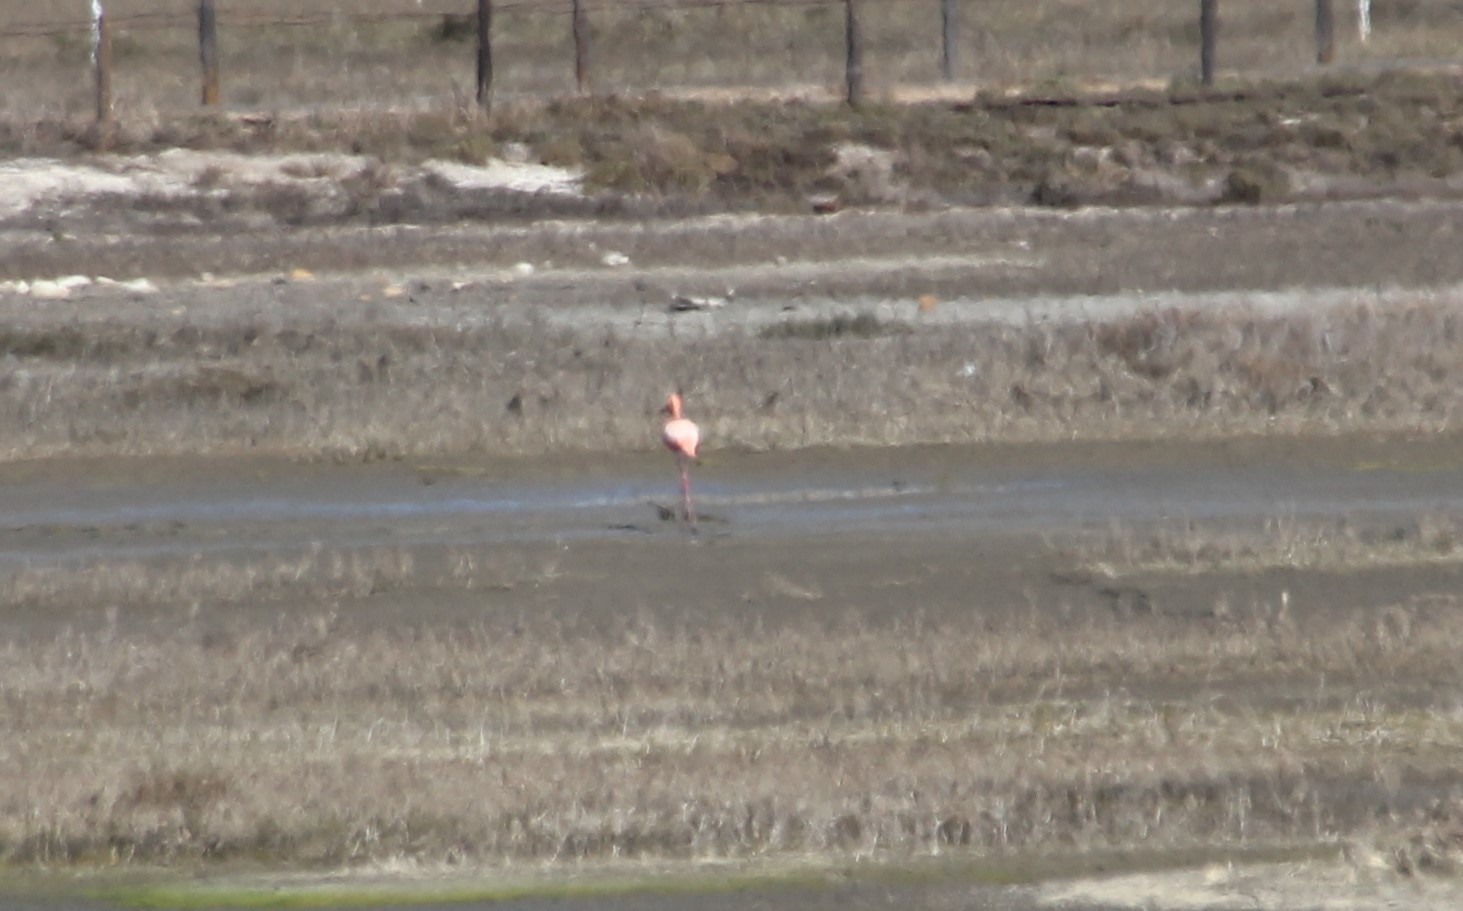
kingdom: Animalia
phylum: Chordata
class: Aves
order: Phoenicopteriformes
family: Phoenicopteridae
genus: Phoenicopterus
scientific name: Phoenicopterus ruber
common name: American flamingo
